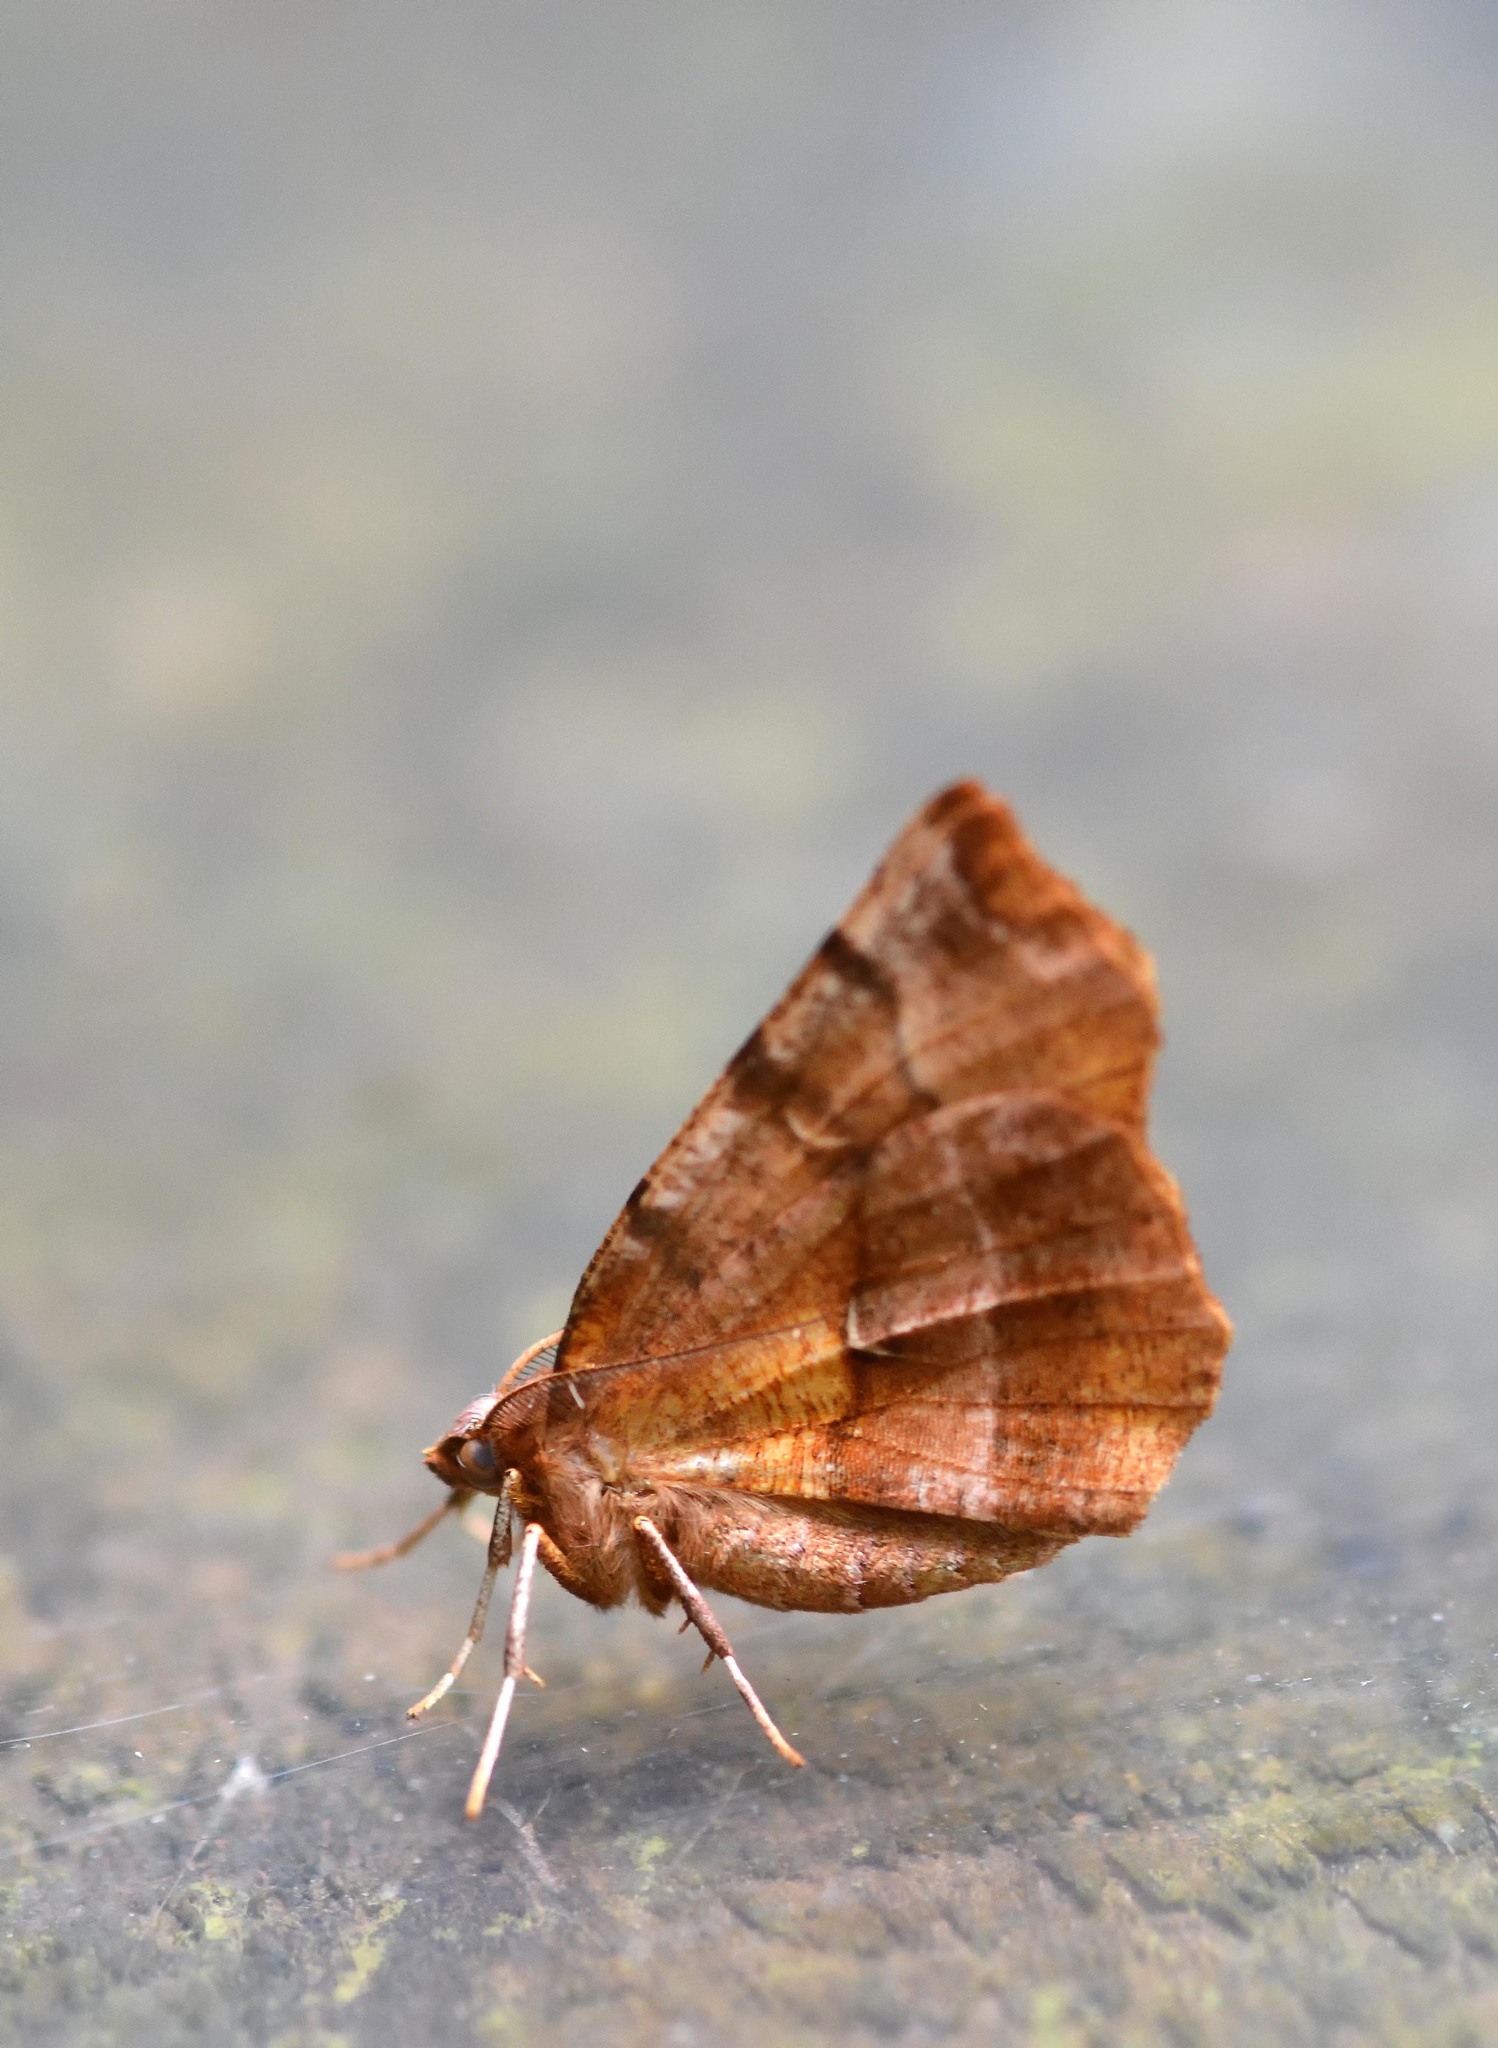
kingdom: Animalia
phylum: Arthropoda
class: Insecta
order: Lepidoptera
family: Geometridae
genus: Selenia
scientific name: Selenia dentaria
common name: Early thorn
